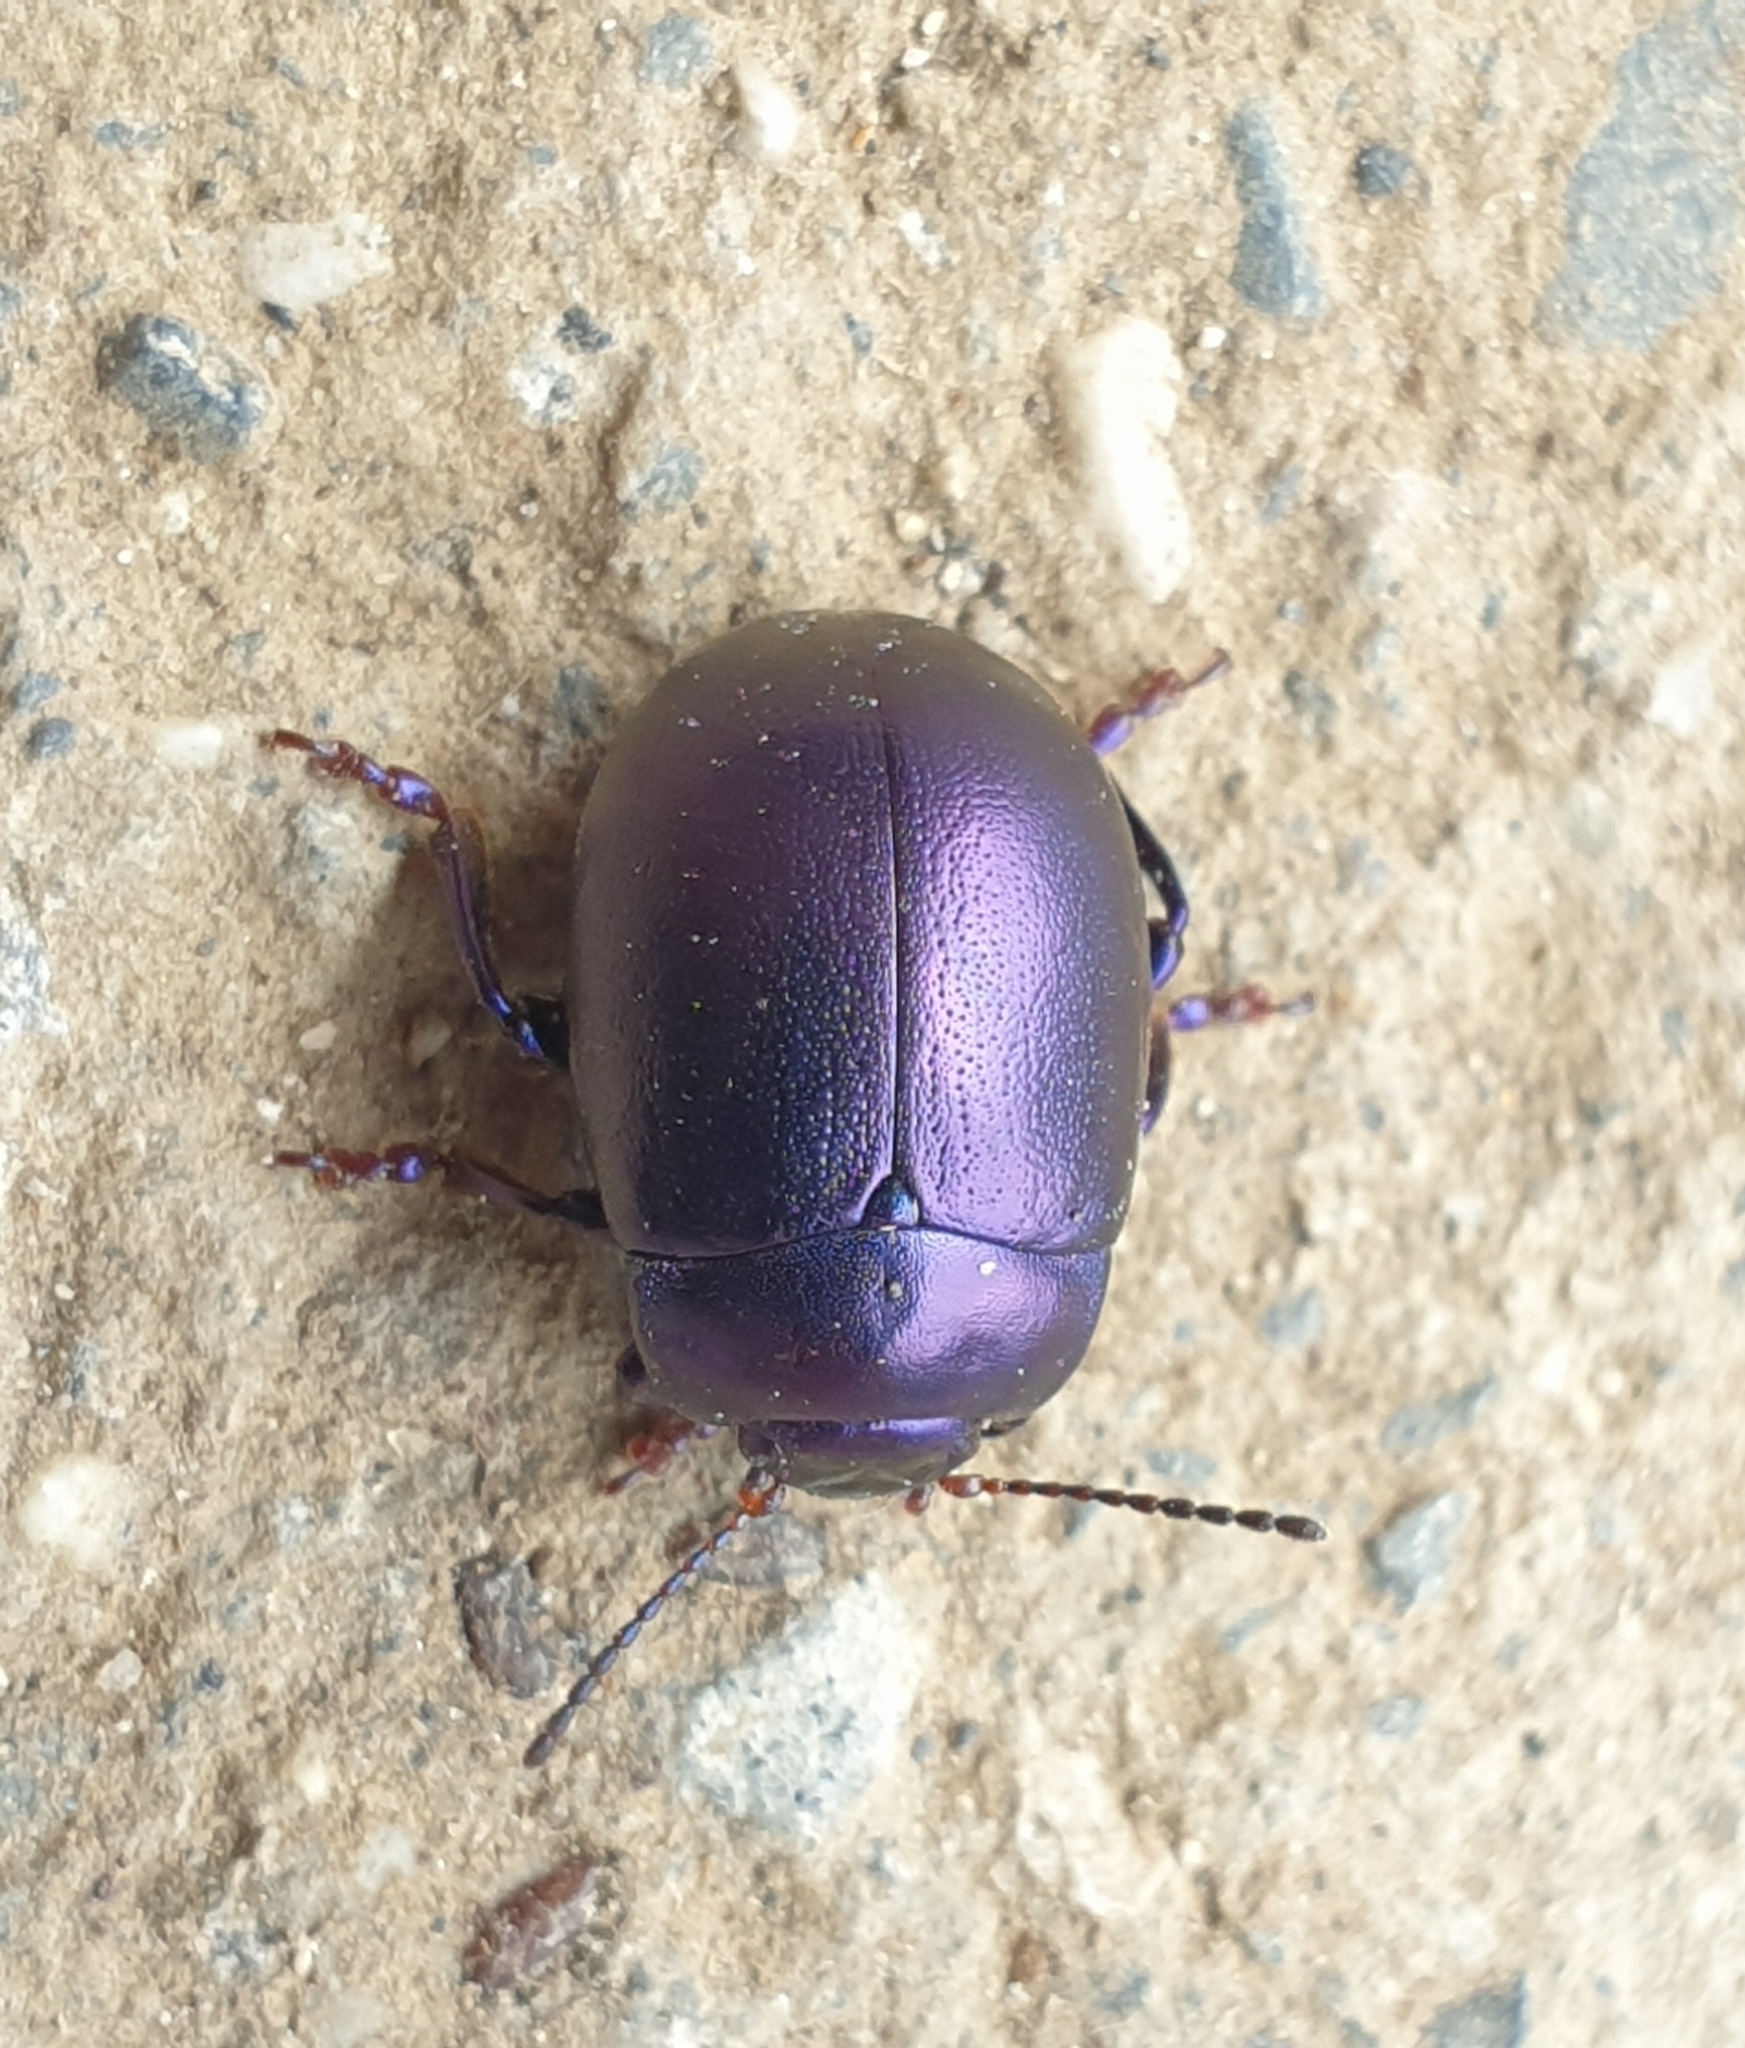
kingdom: Animalia
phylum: Arthropoda
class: Insecta
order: Coleoptera
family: Chrysomelidae
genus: Chrysolina
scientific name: Chrysolina sturmi
